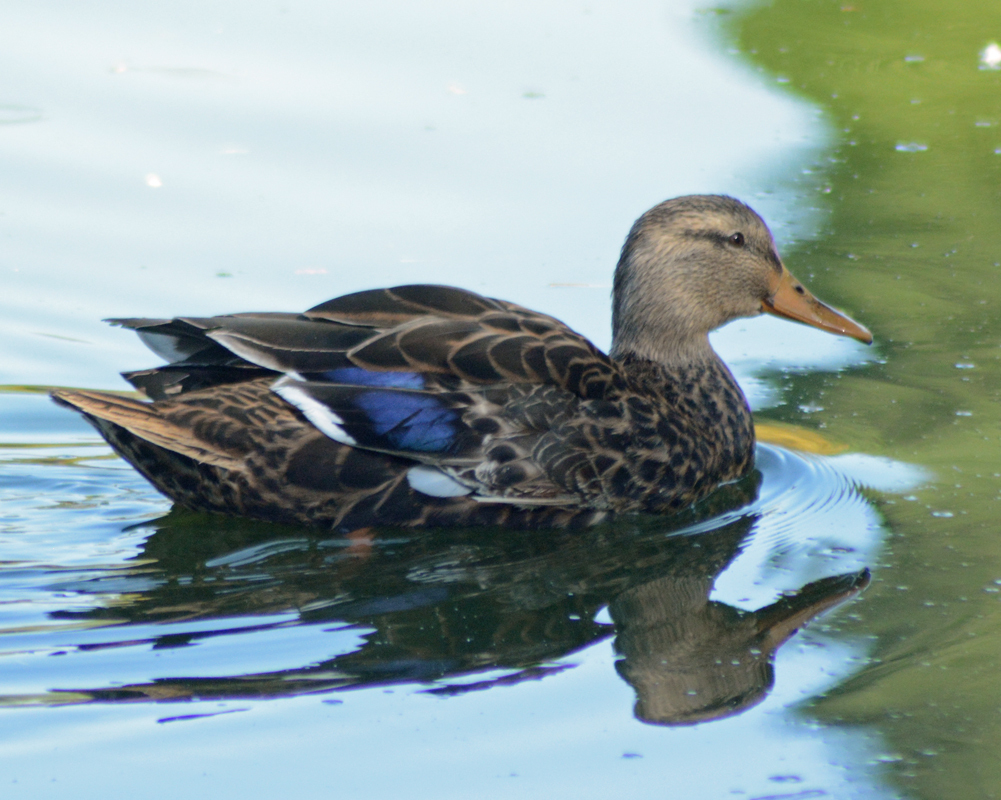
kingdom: Animalia
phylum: Chordata
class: Aves
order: Anseriformes
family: Anatidae
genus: Anas
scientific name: Anas diazi
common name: Mexican duck
